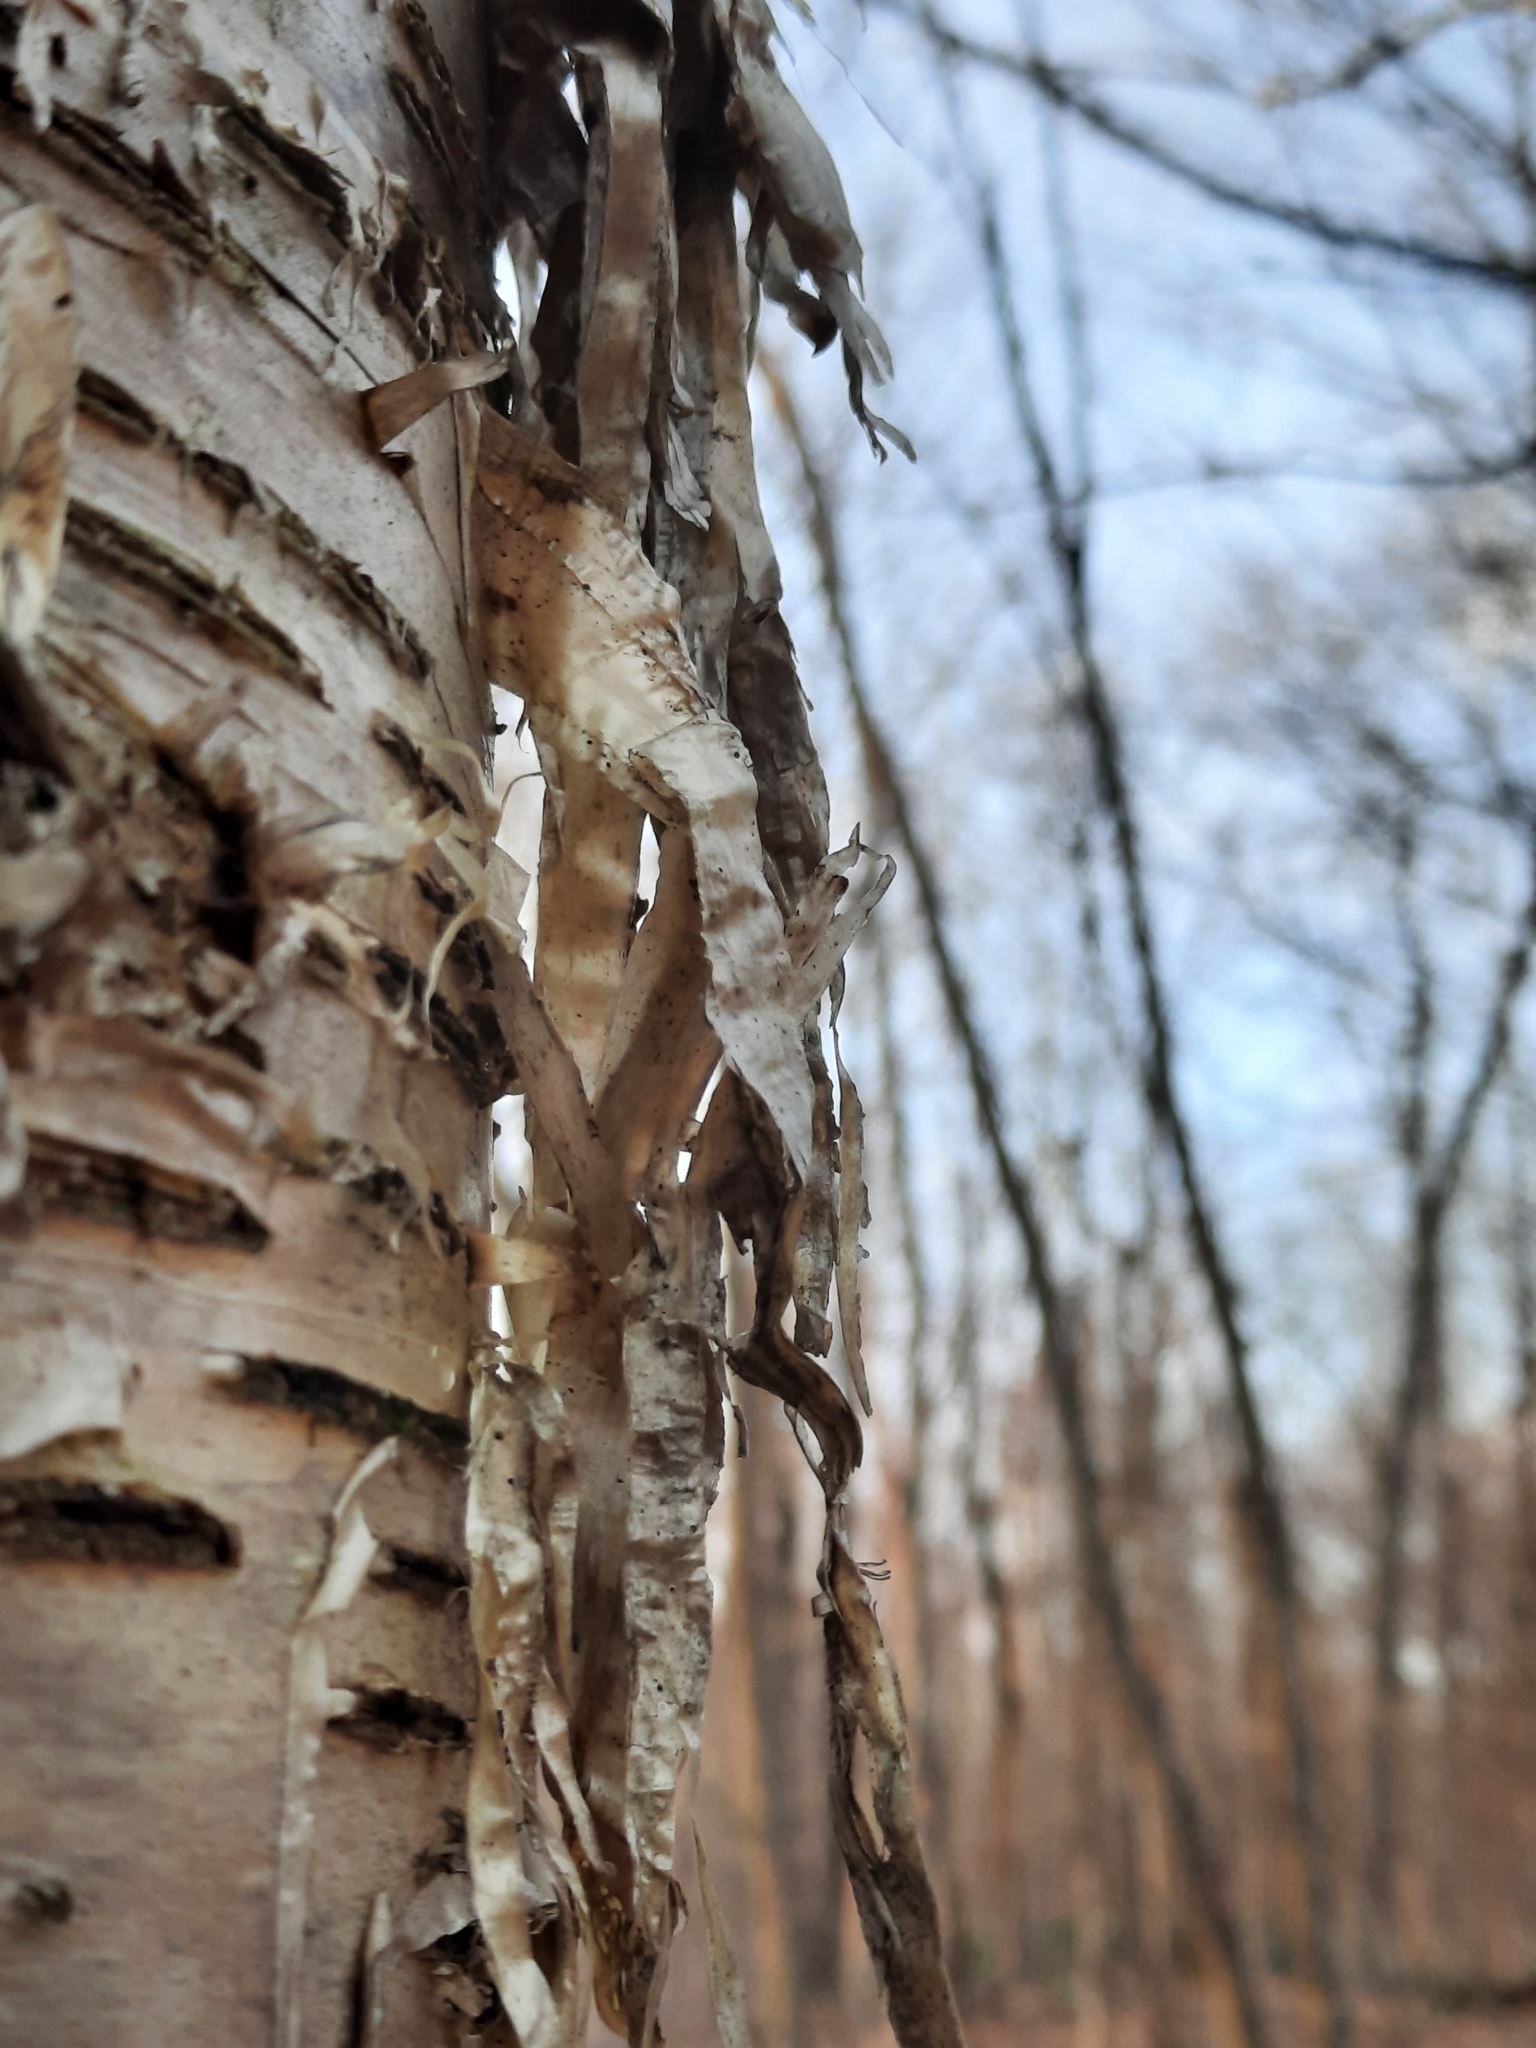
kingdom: Plantae
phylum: Tracheophyta
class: Magnoliopsida
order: Fagales
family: Betulaceae
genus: Betula
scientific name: Betula alleghaniensis
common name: Yellow birch
